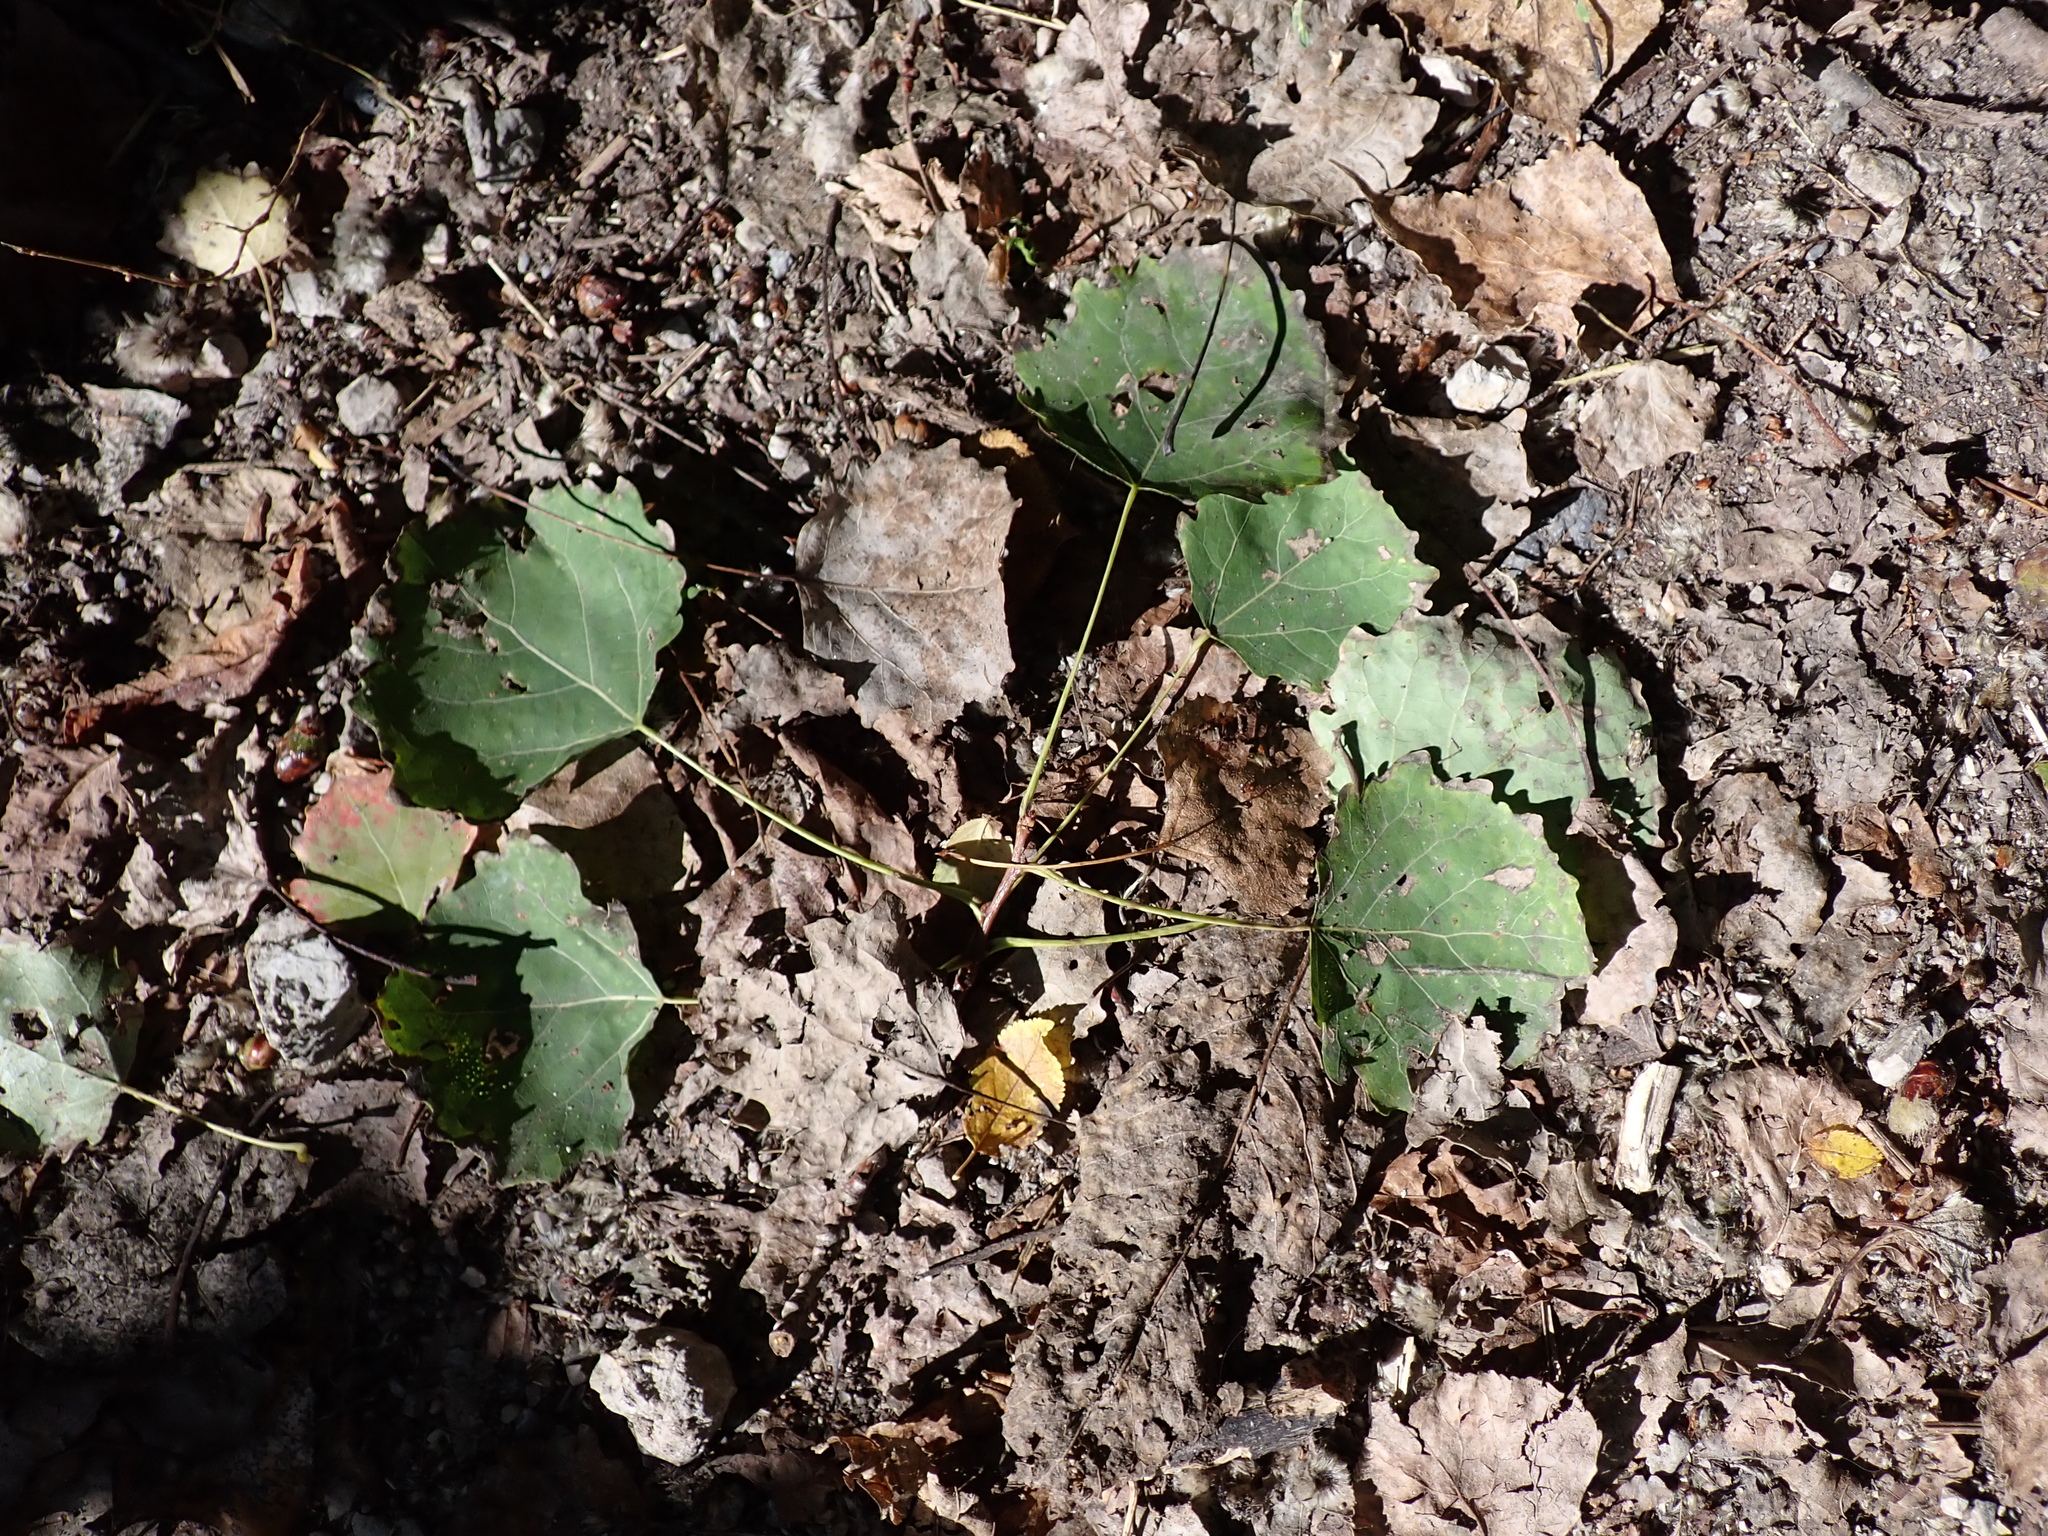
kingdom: Plantae
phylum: Tracheophyta
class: Magnoliopsida
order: Malpighiales
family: Salicaceae
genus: Populus
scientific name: Populus tremula
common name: European aspen
